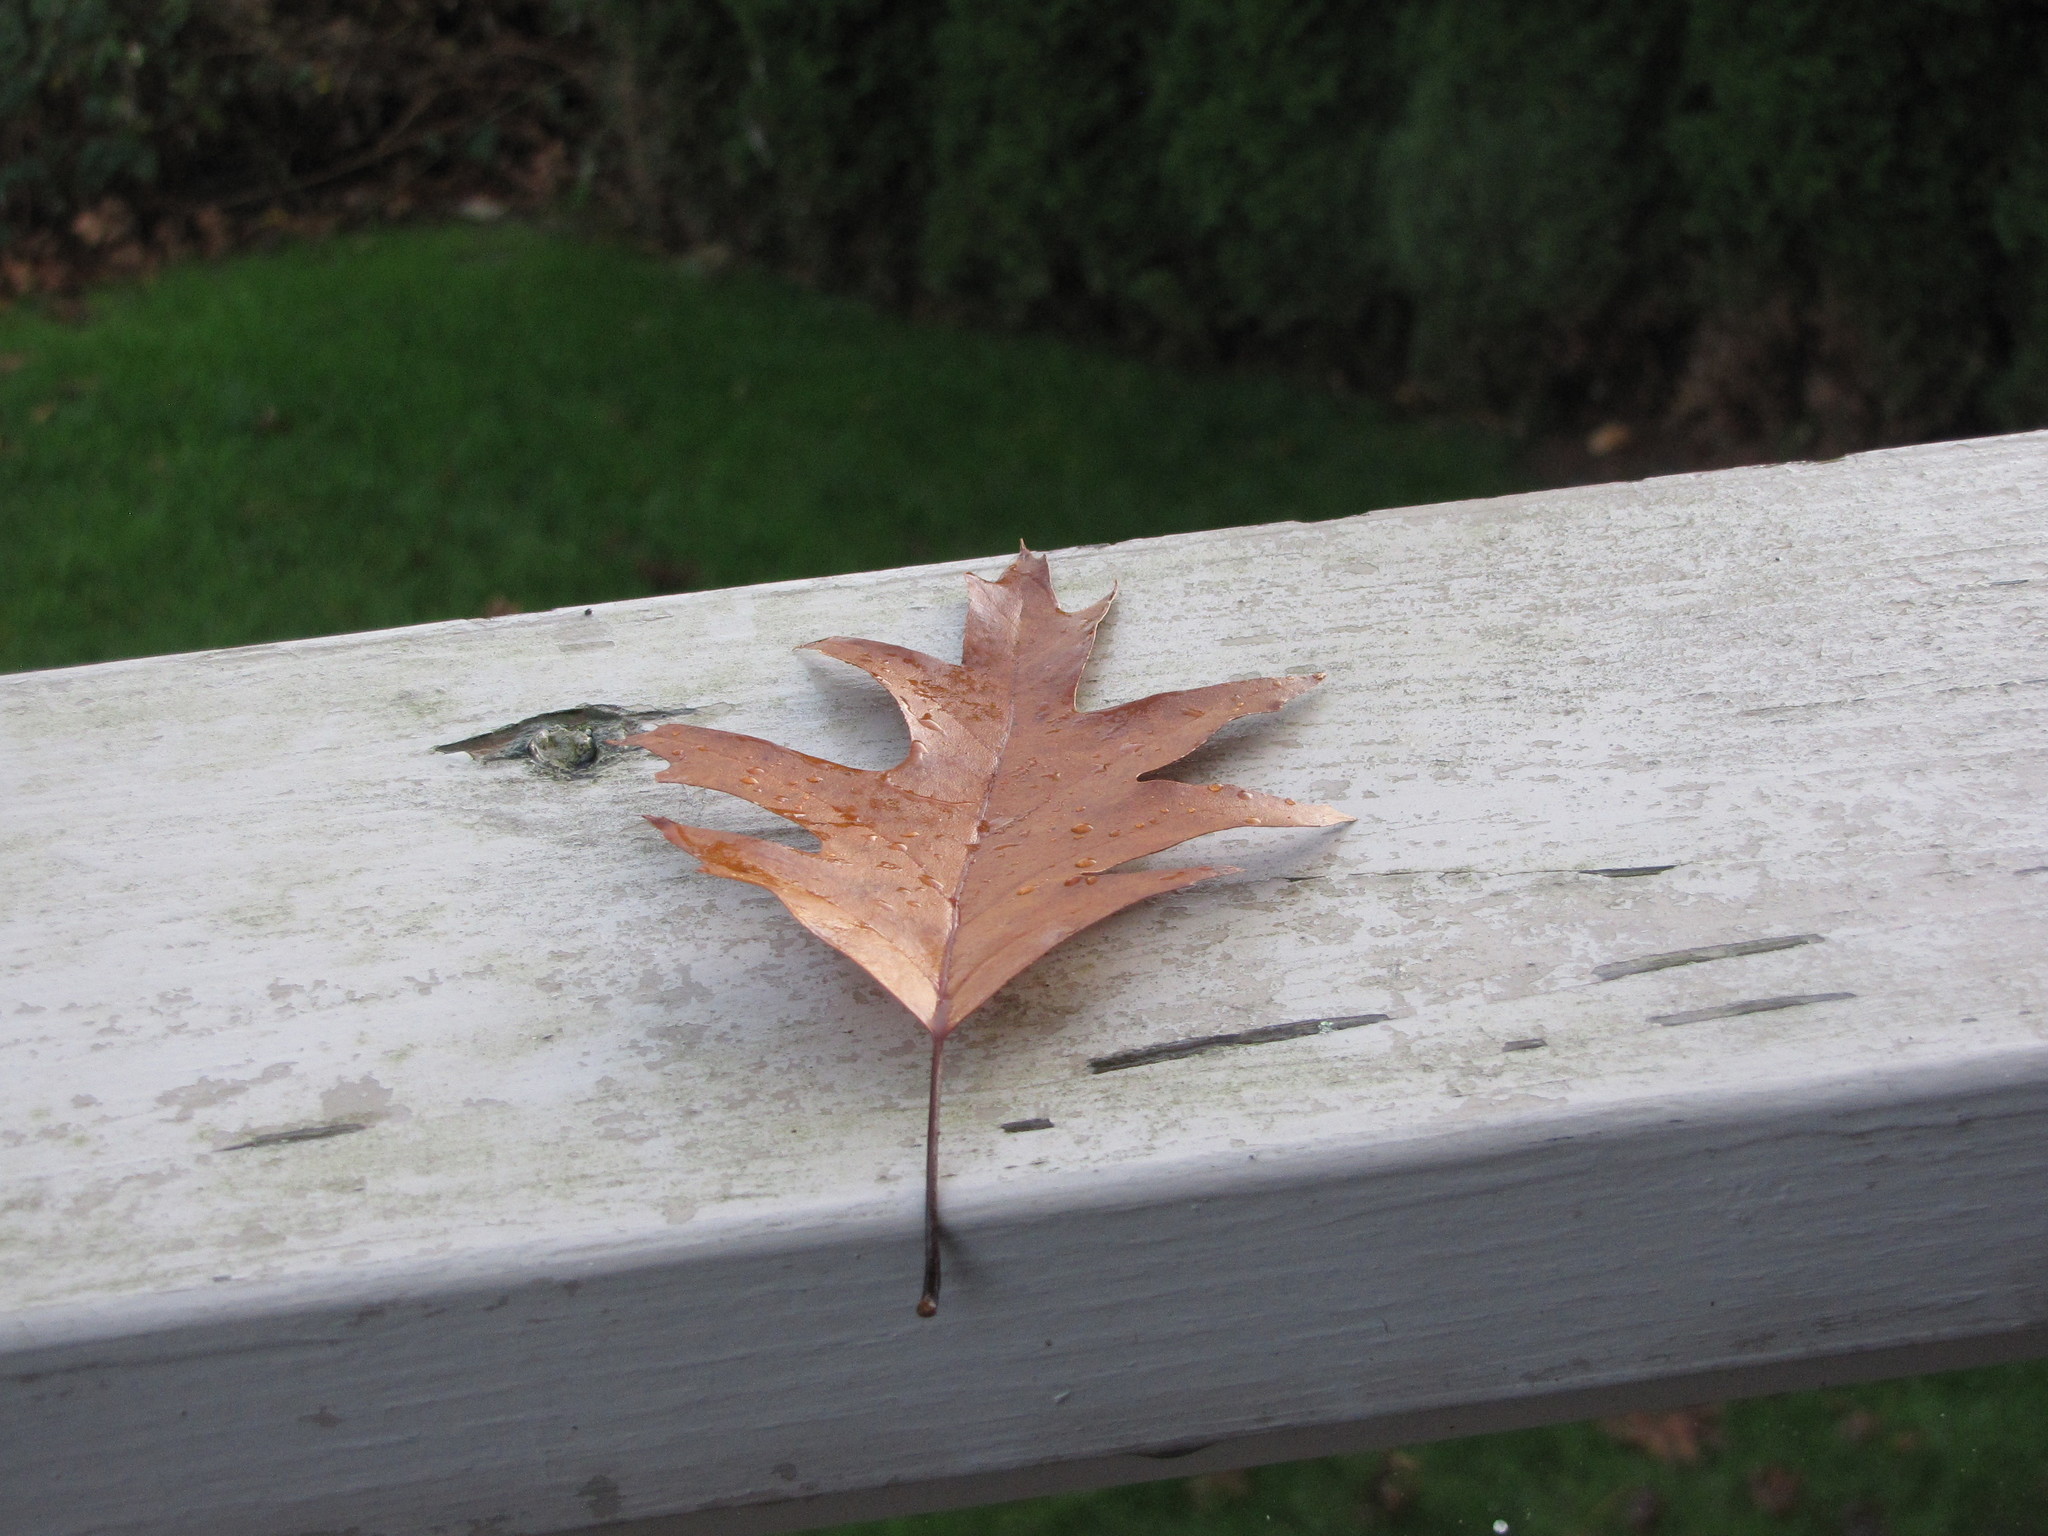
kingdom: Plantae
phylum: Tracheophyta
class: Magnoliopsida
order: Fagales
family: Fagaceae
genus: Quercus
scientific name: Quercus rubra
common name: Red oak
